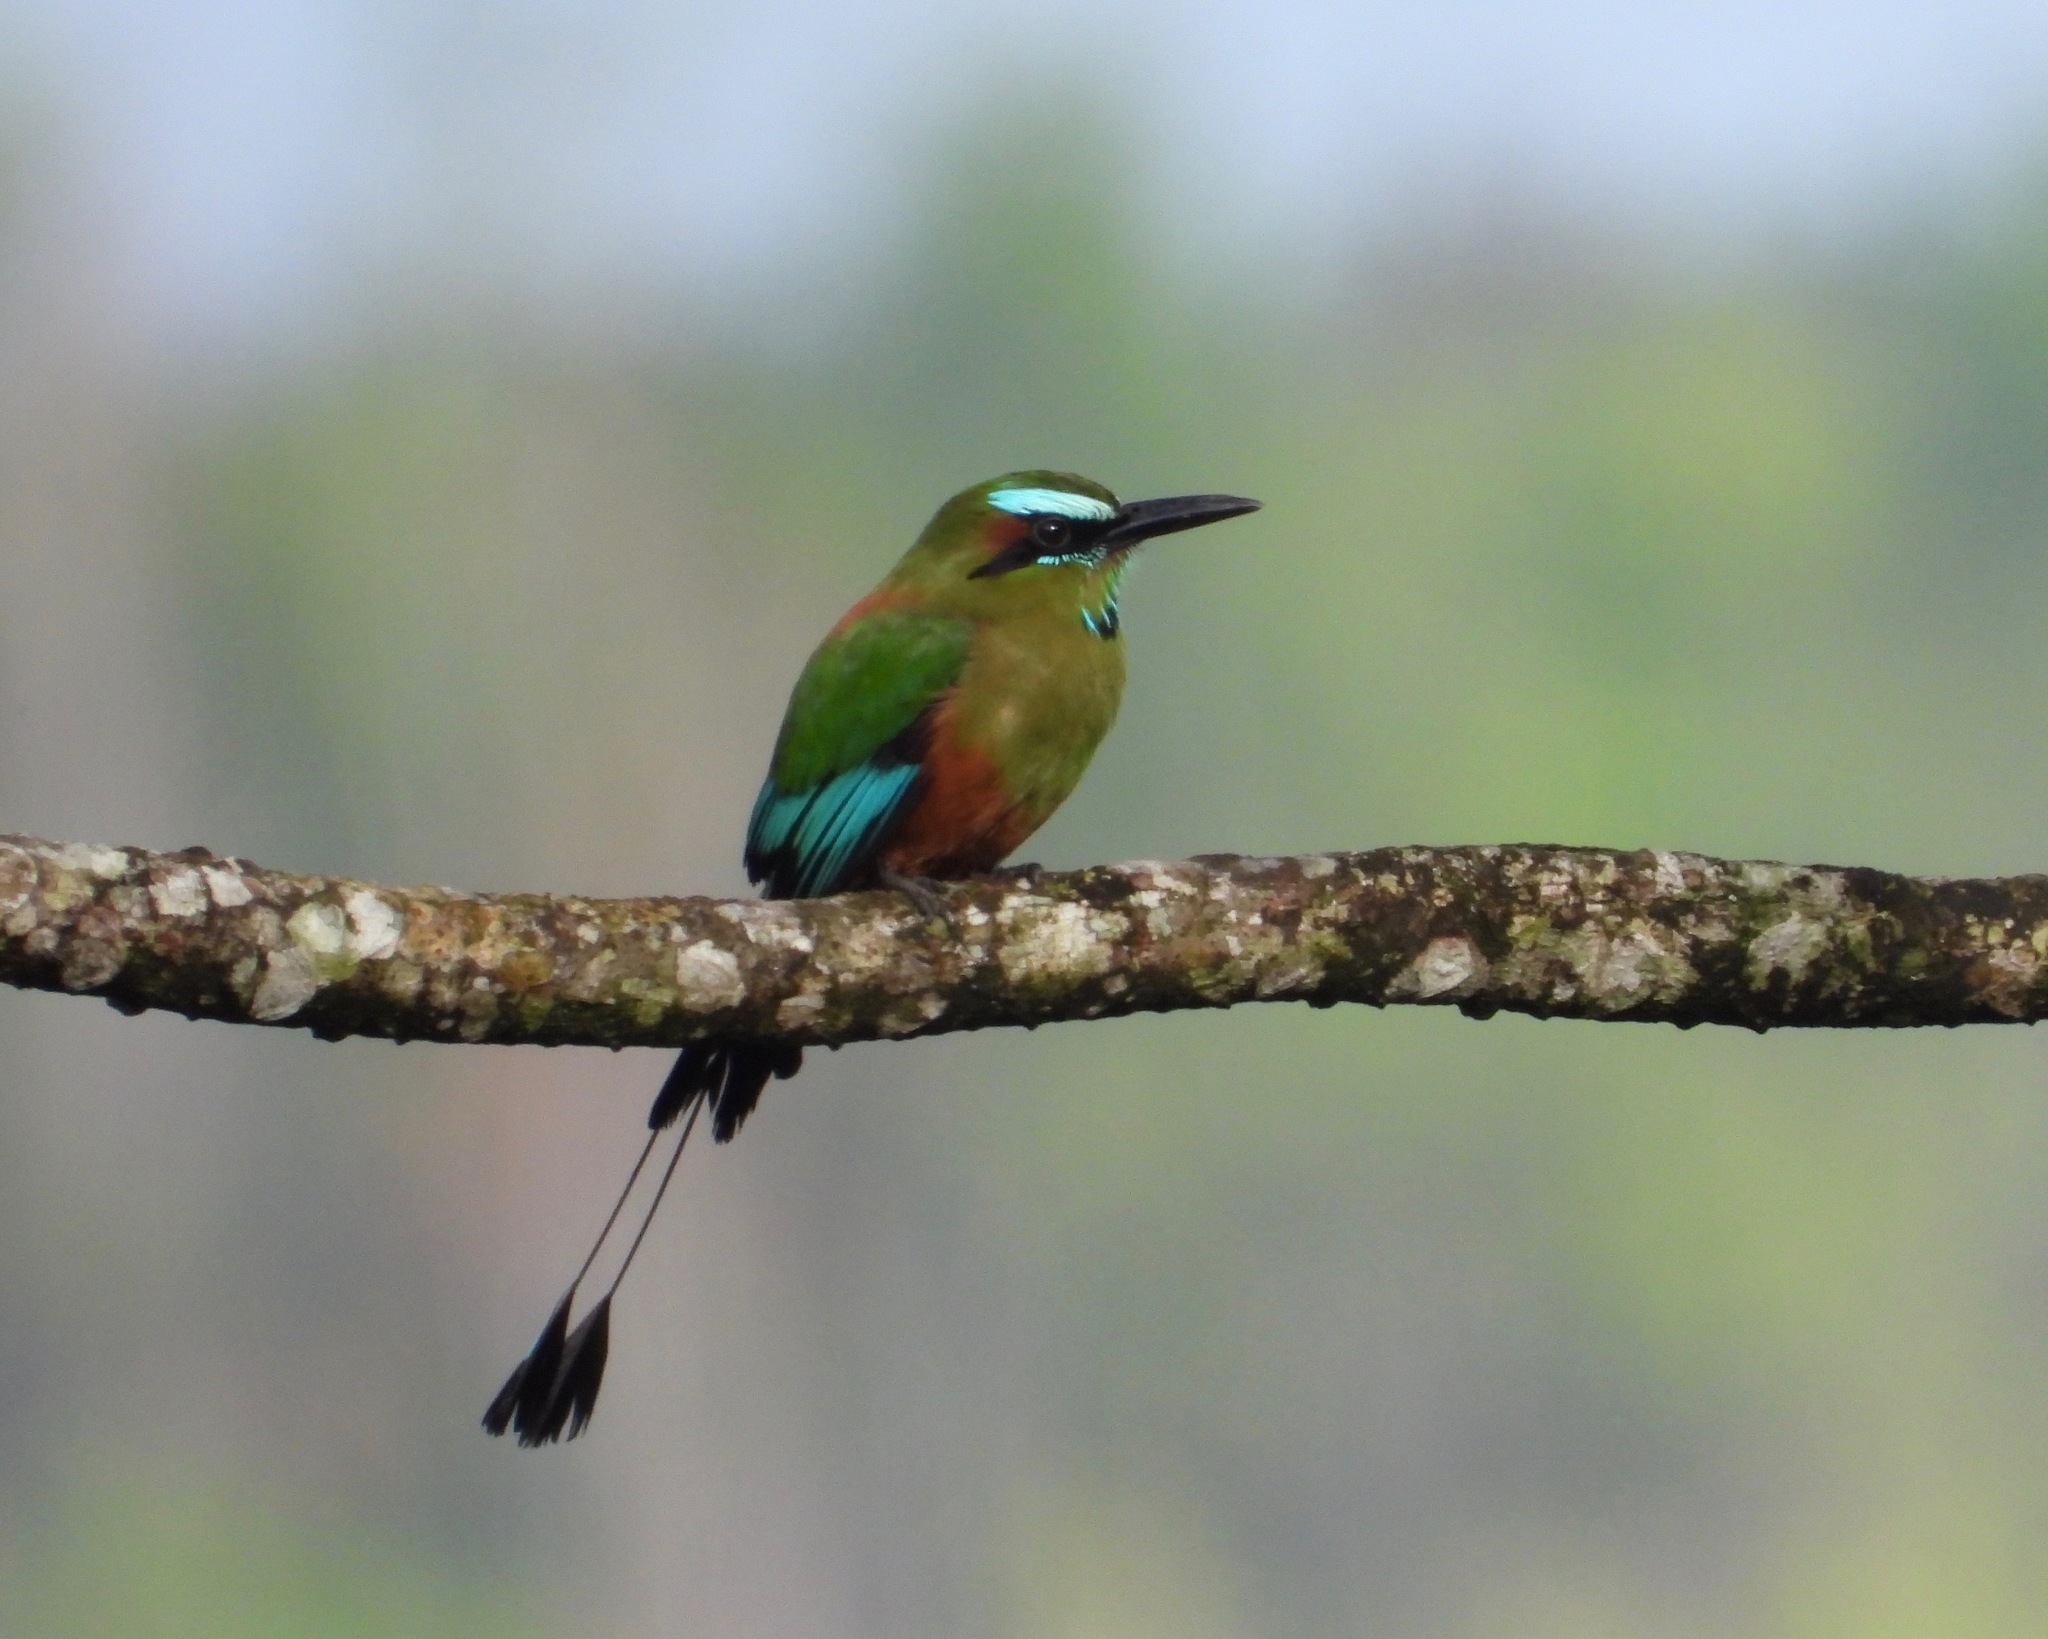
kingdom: Animalia
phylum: Chordata
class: Aves
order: Coraciiformes
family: Momotidae
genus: Eumomota
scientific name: Eumomota superciliosa
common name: Turquoise-browed motmot
